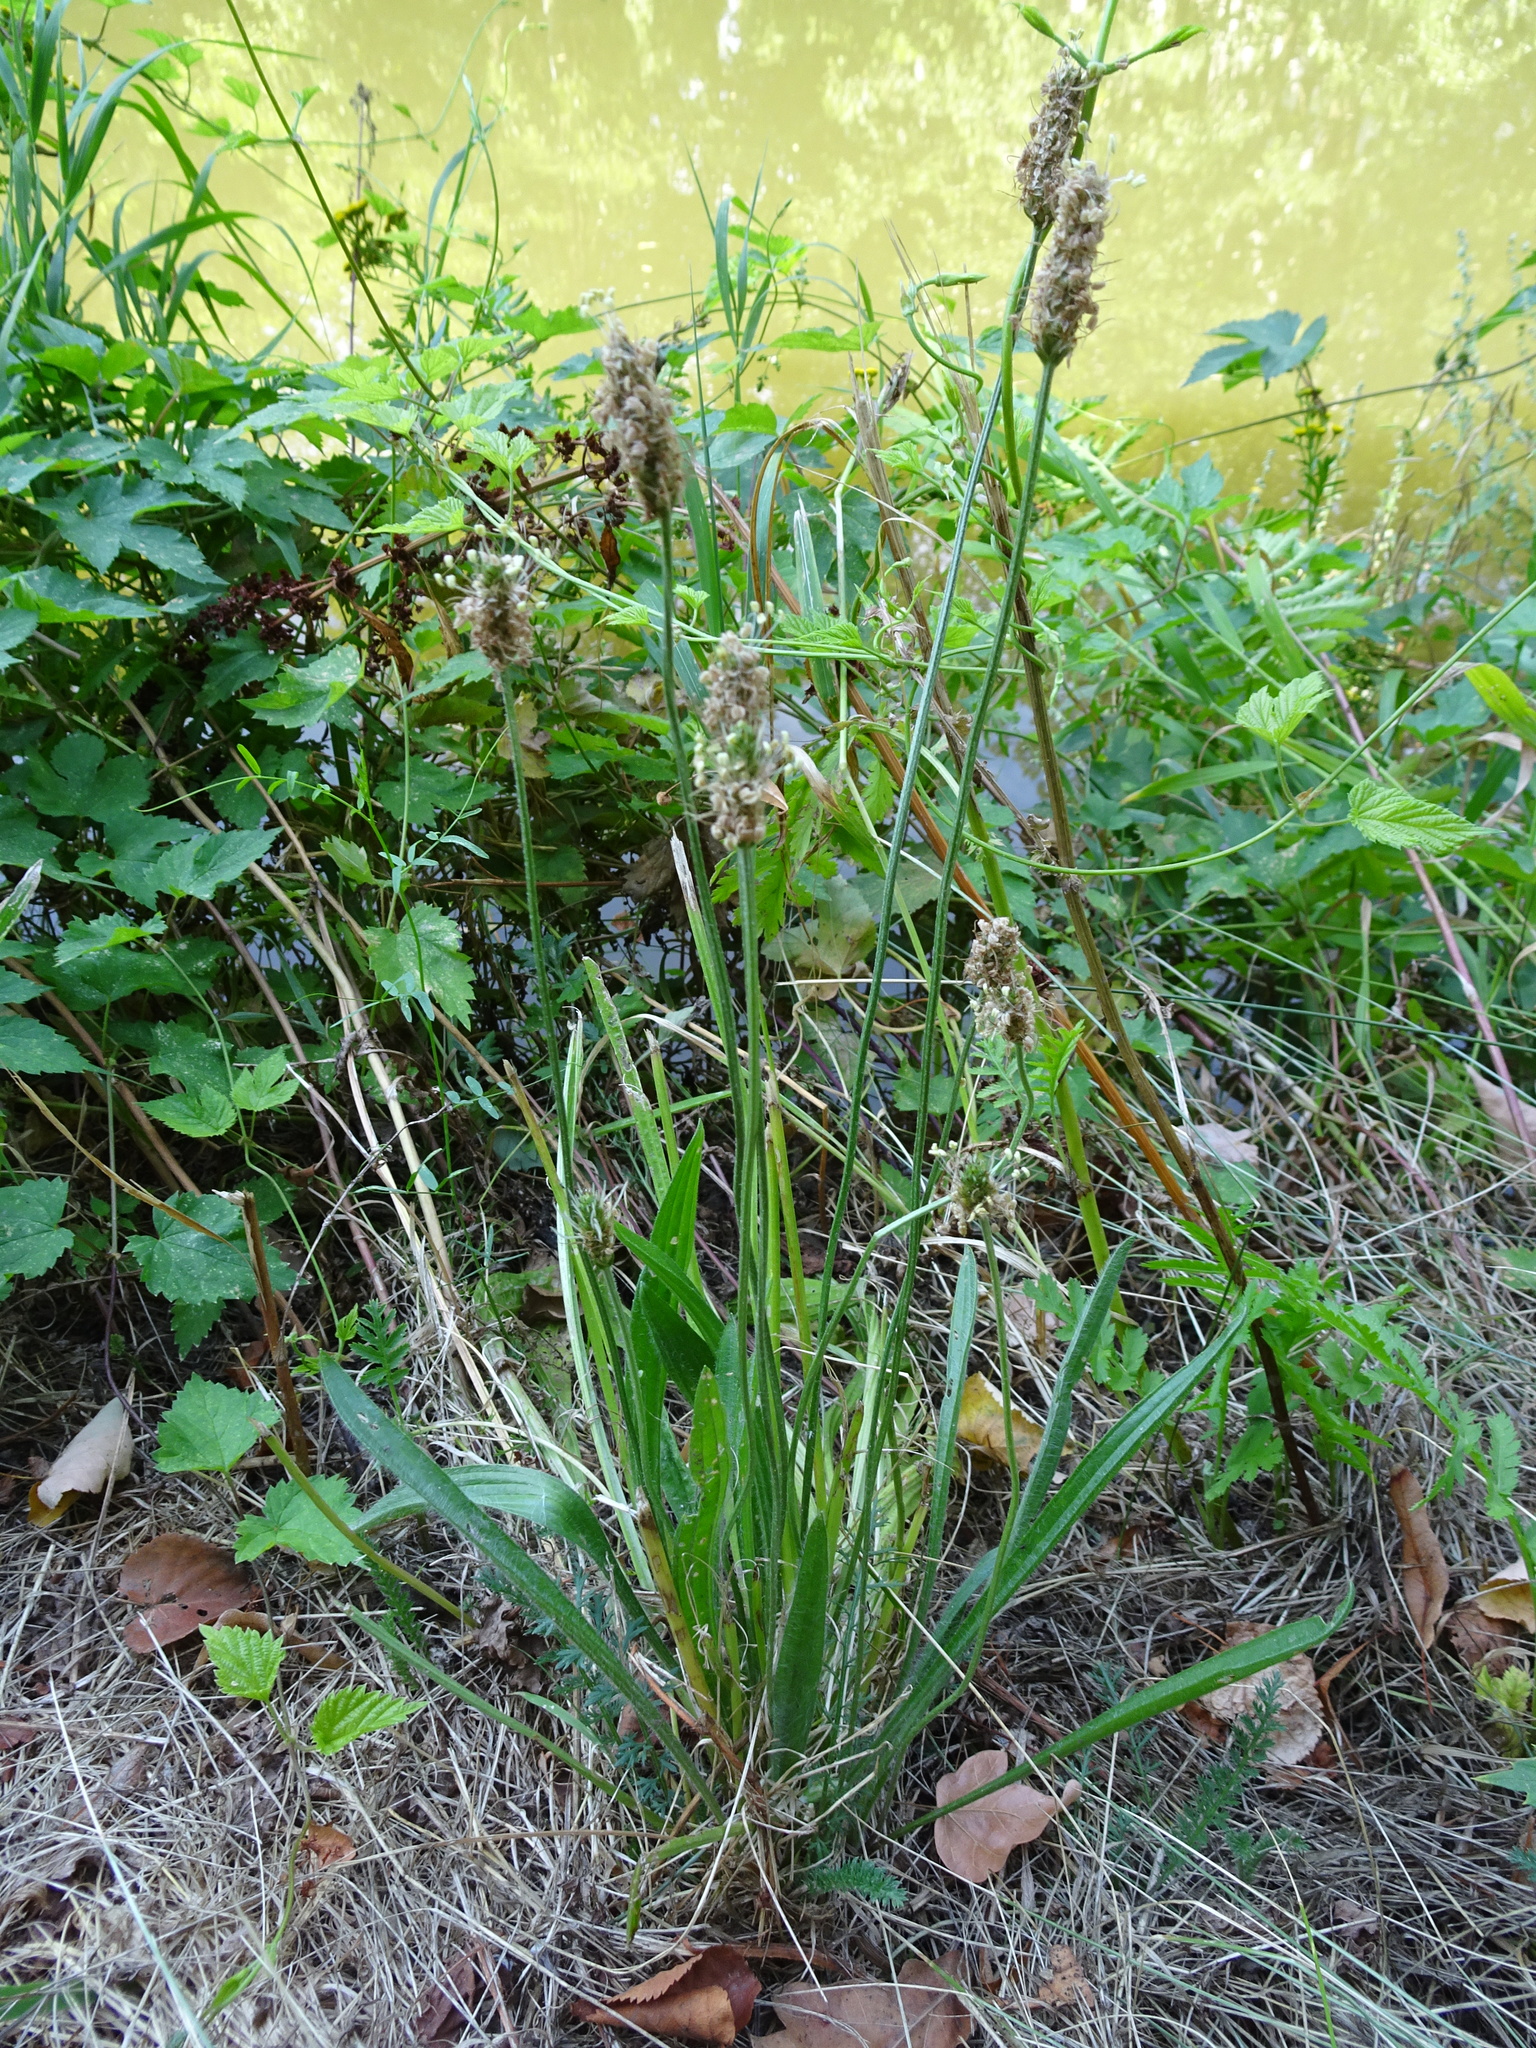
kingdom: Plantae
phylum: Tracheophyta
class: Magnoliopsida
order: Lamiales
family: Plantaginaceae
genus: Plantago
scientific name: Plantago lanceolata
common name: Ribwort plantain
